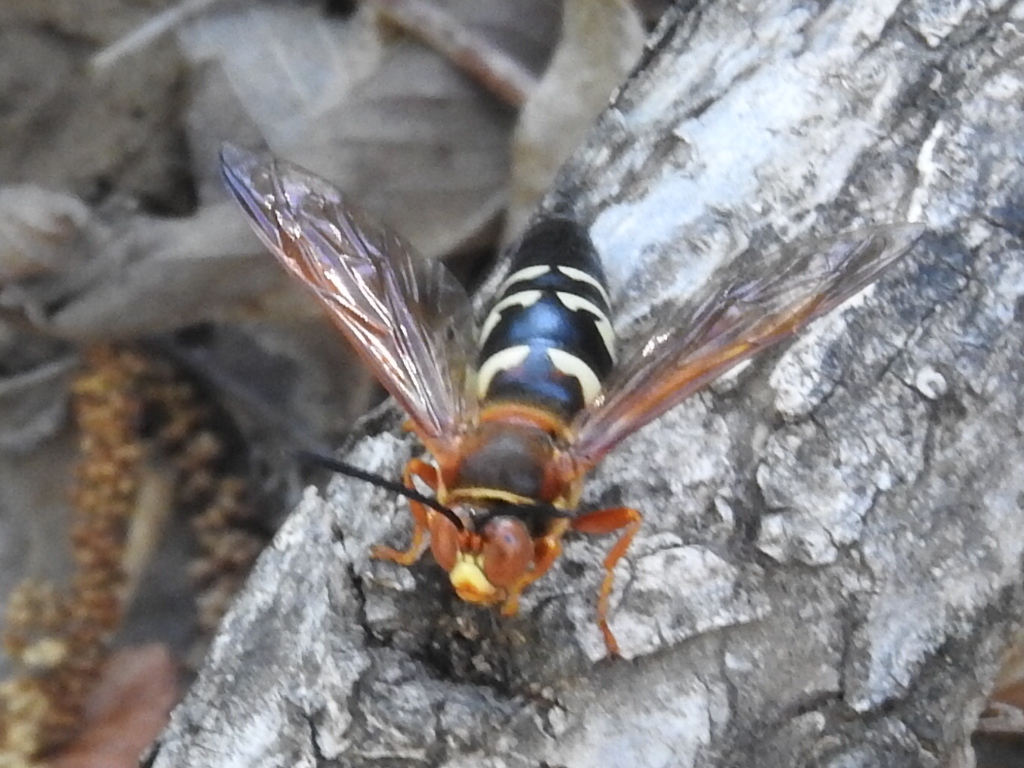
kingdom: Animalia
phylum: Arthropoda
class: Insecta
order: Hymenoptera
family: Crabronidae
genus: Sphecius
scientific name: Sphecius speciosus
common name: Cicada killer
